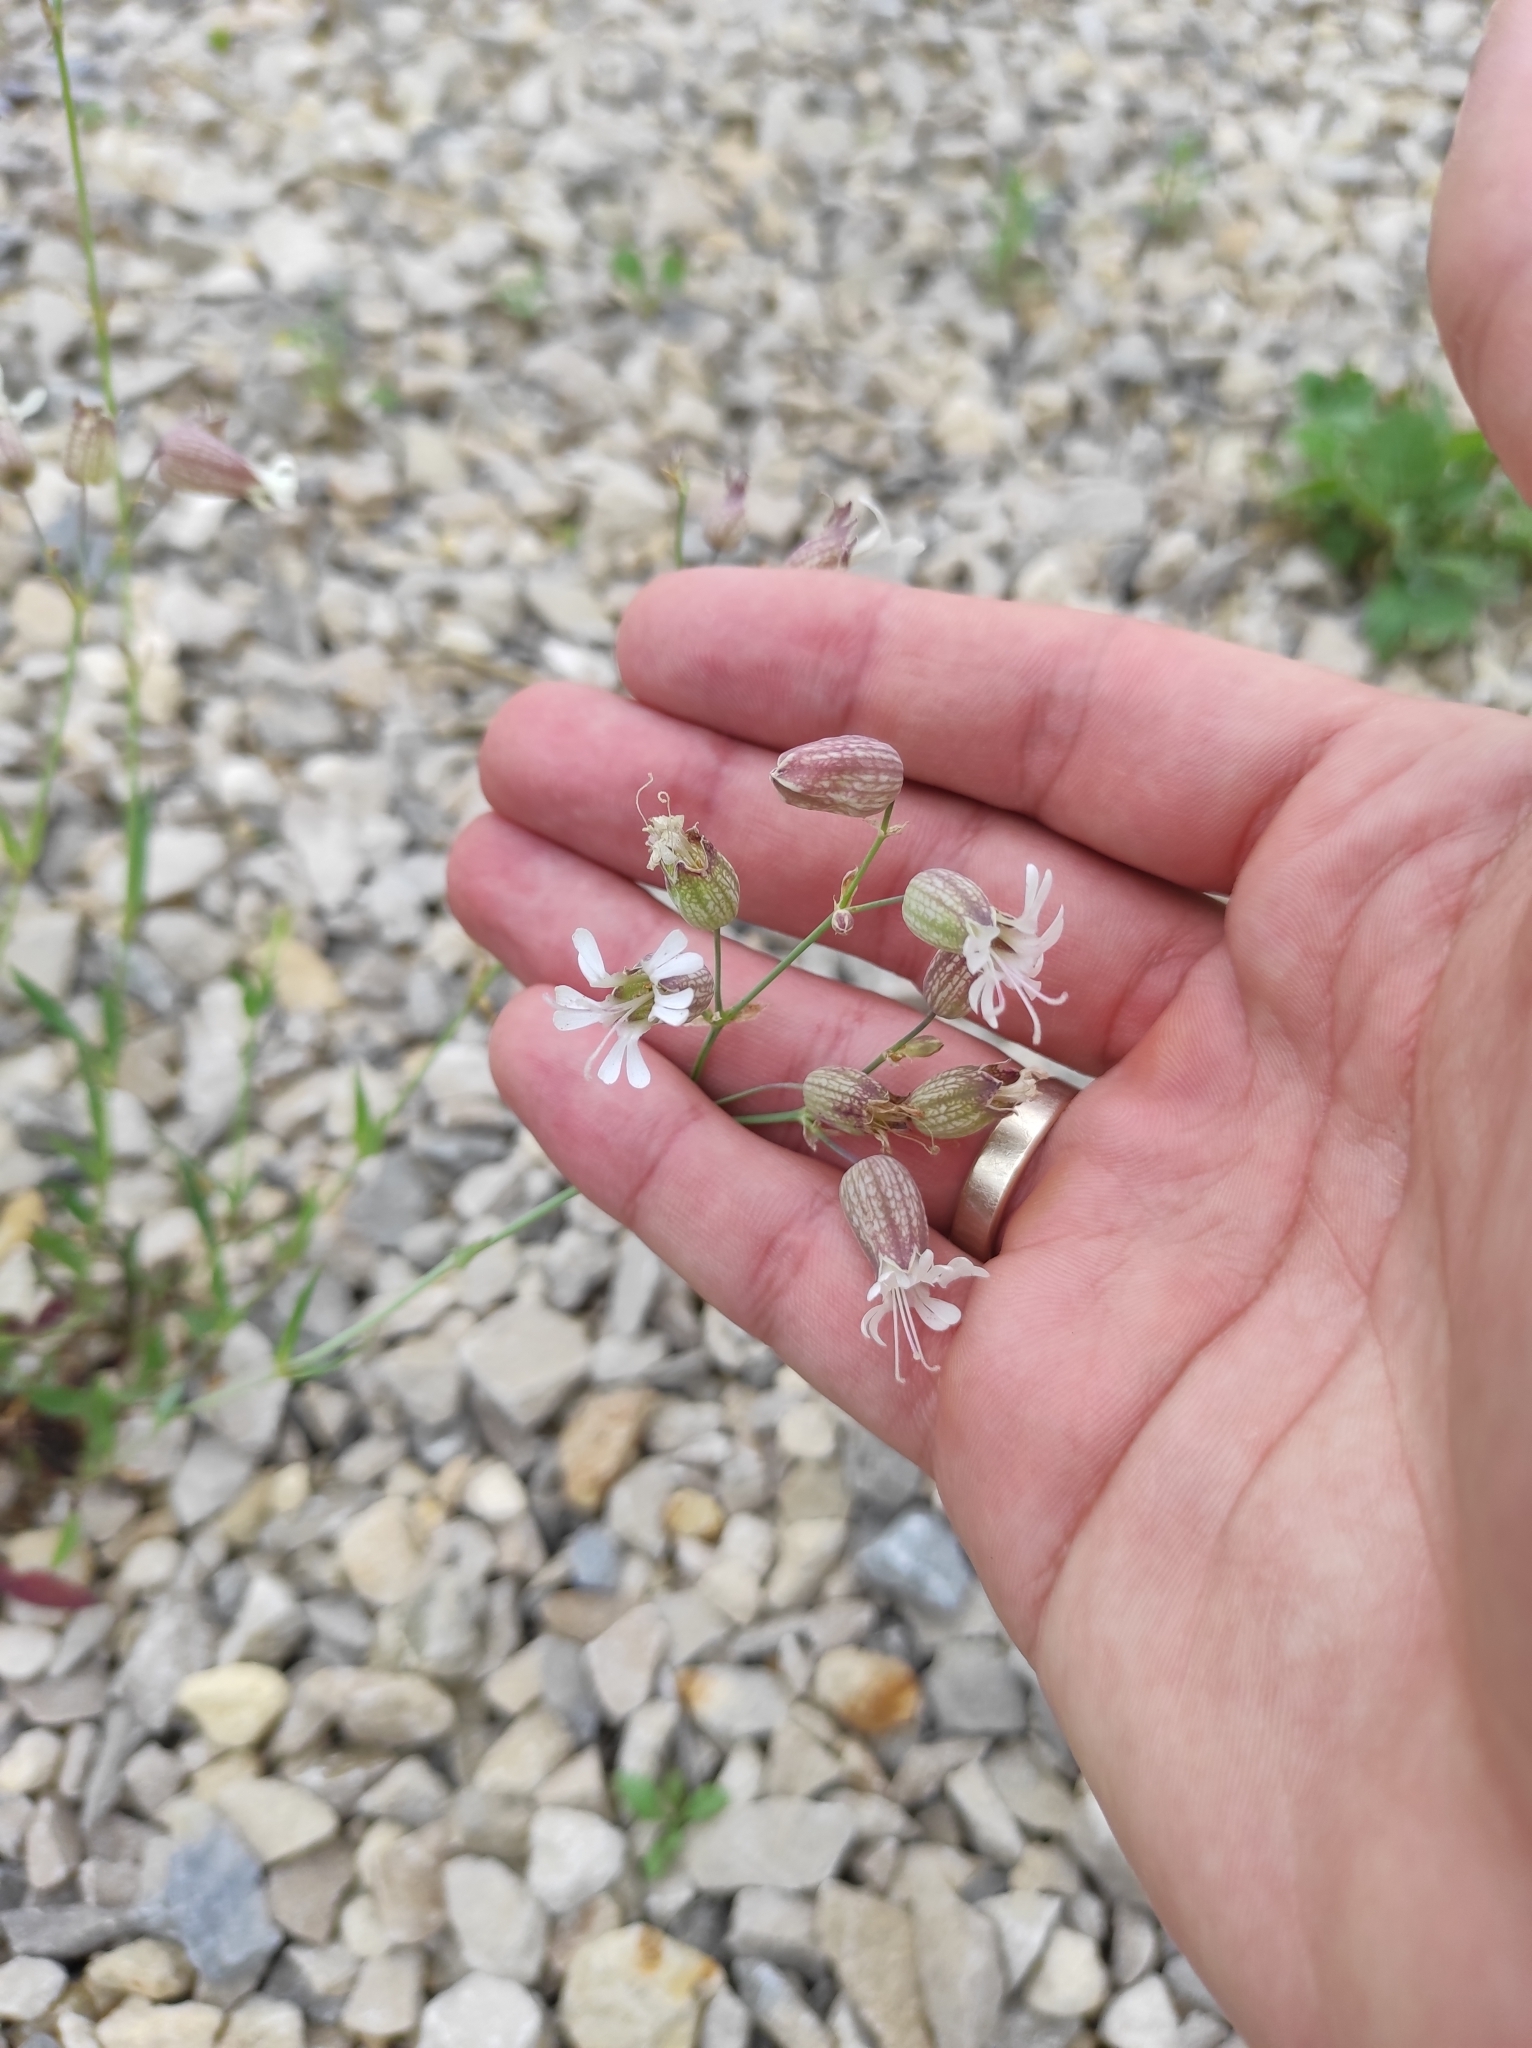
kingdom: Plantae
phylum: Tracheophyta
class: Magnoliopsida
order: Caryophyllales
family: Caryophyllaceae
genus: Silene
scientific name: Silene vulgaris
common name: Bladder campion
